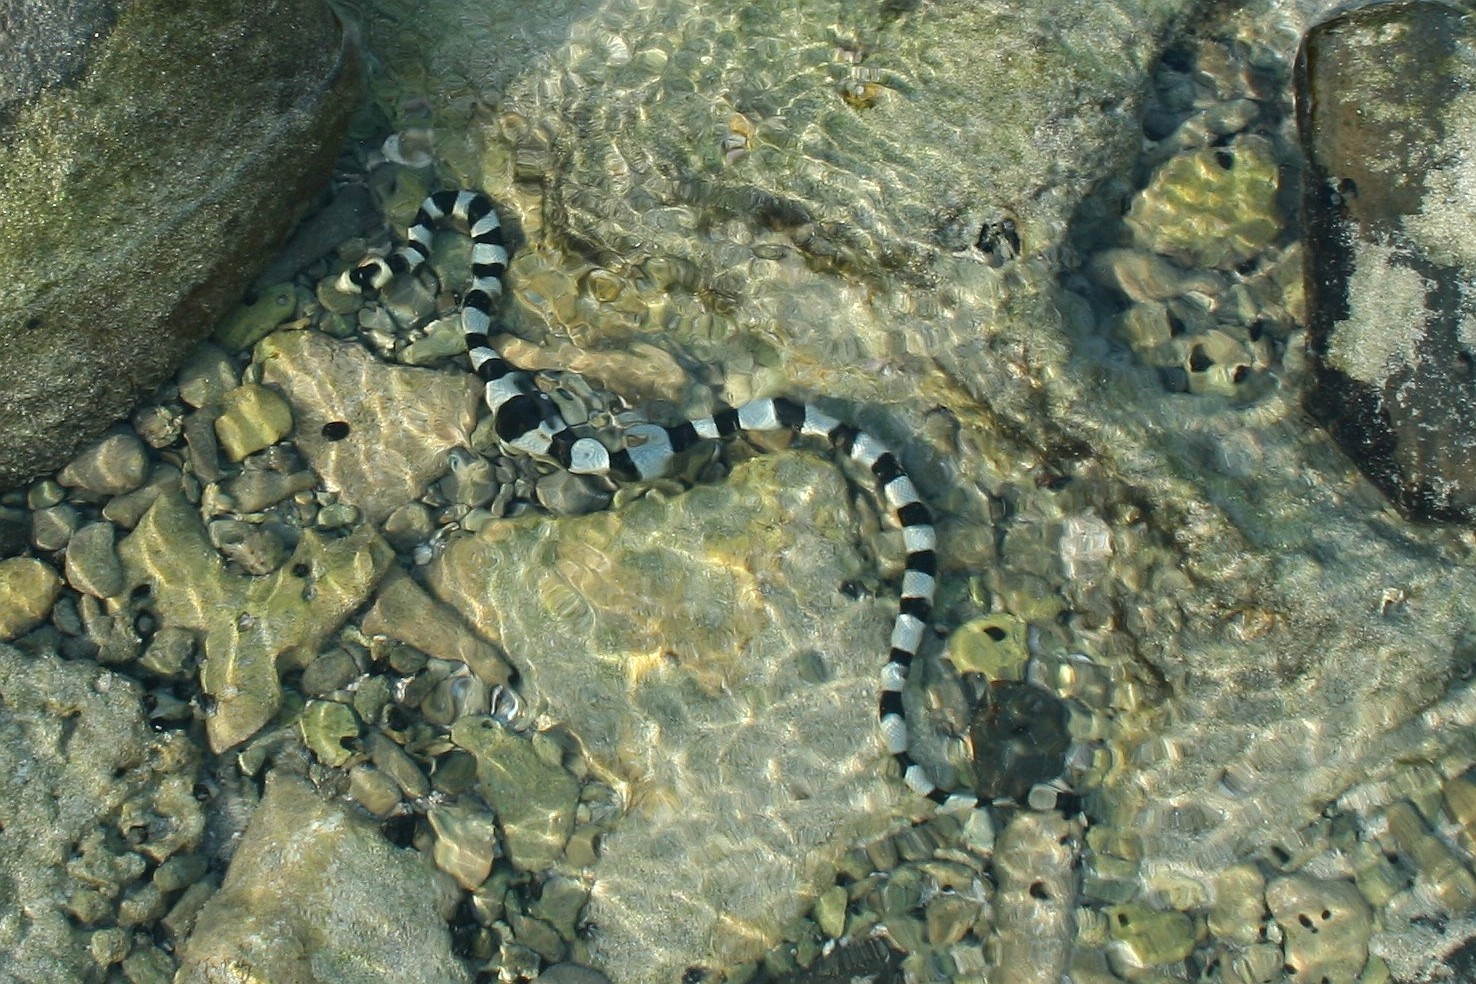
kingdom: Animalia
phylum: Chordata
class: Squamata
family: Elapidae
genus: Laticauda
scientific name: Laticauda colubrina
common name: Yellow-lipped sea krait
